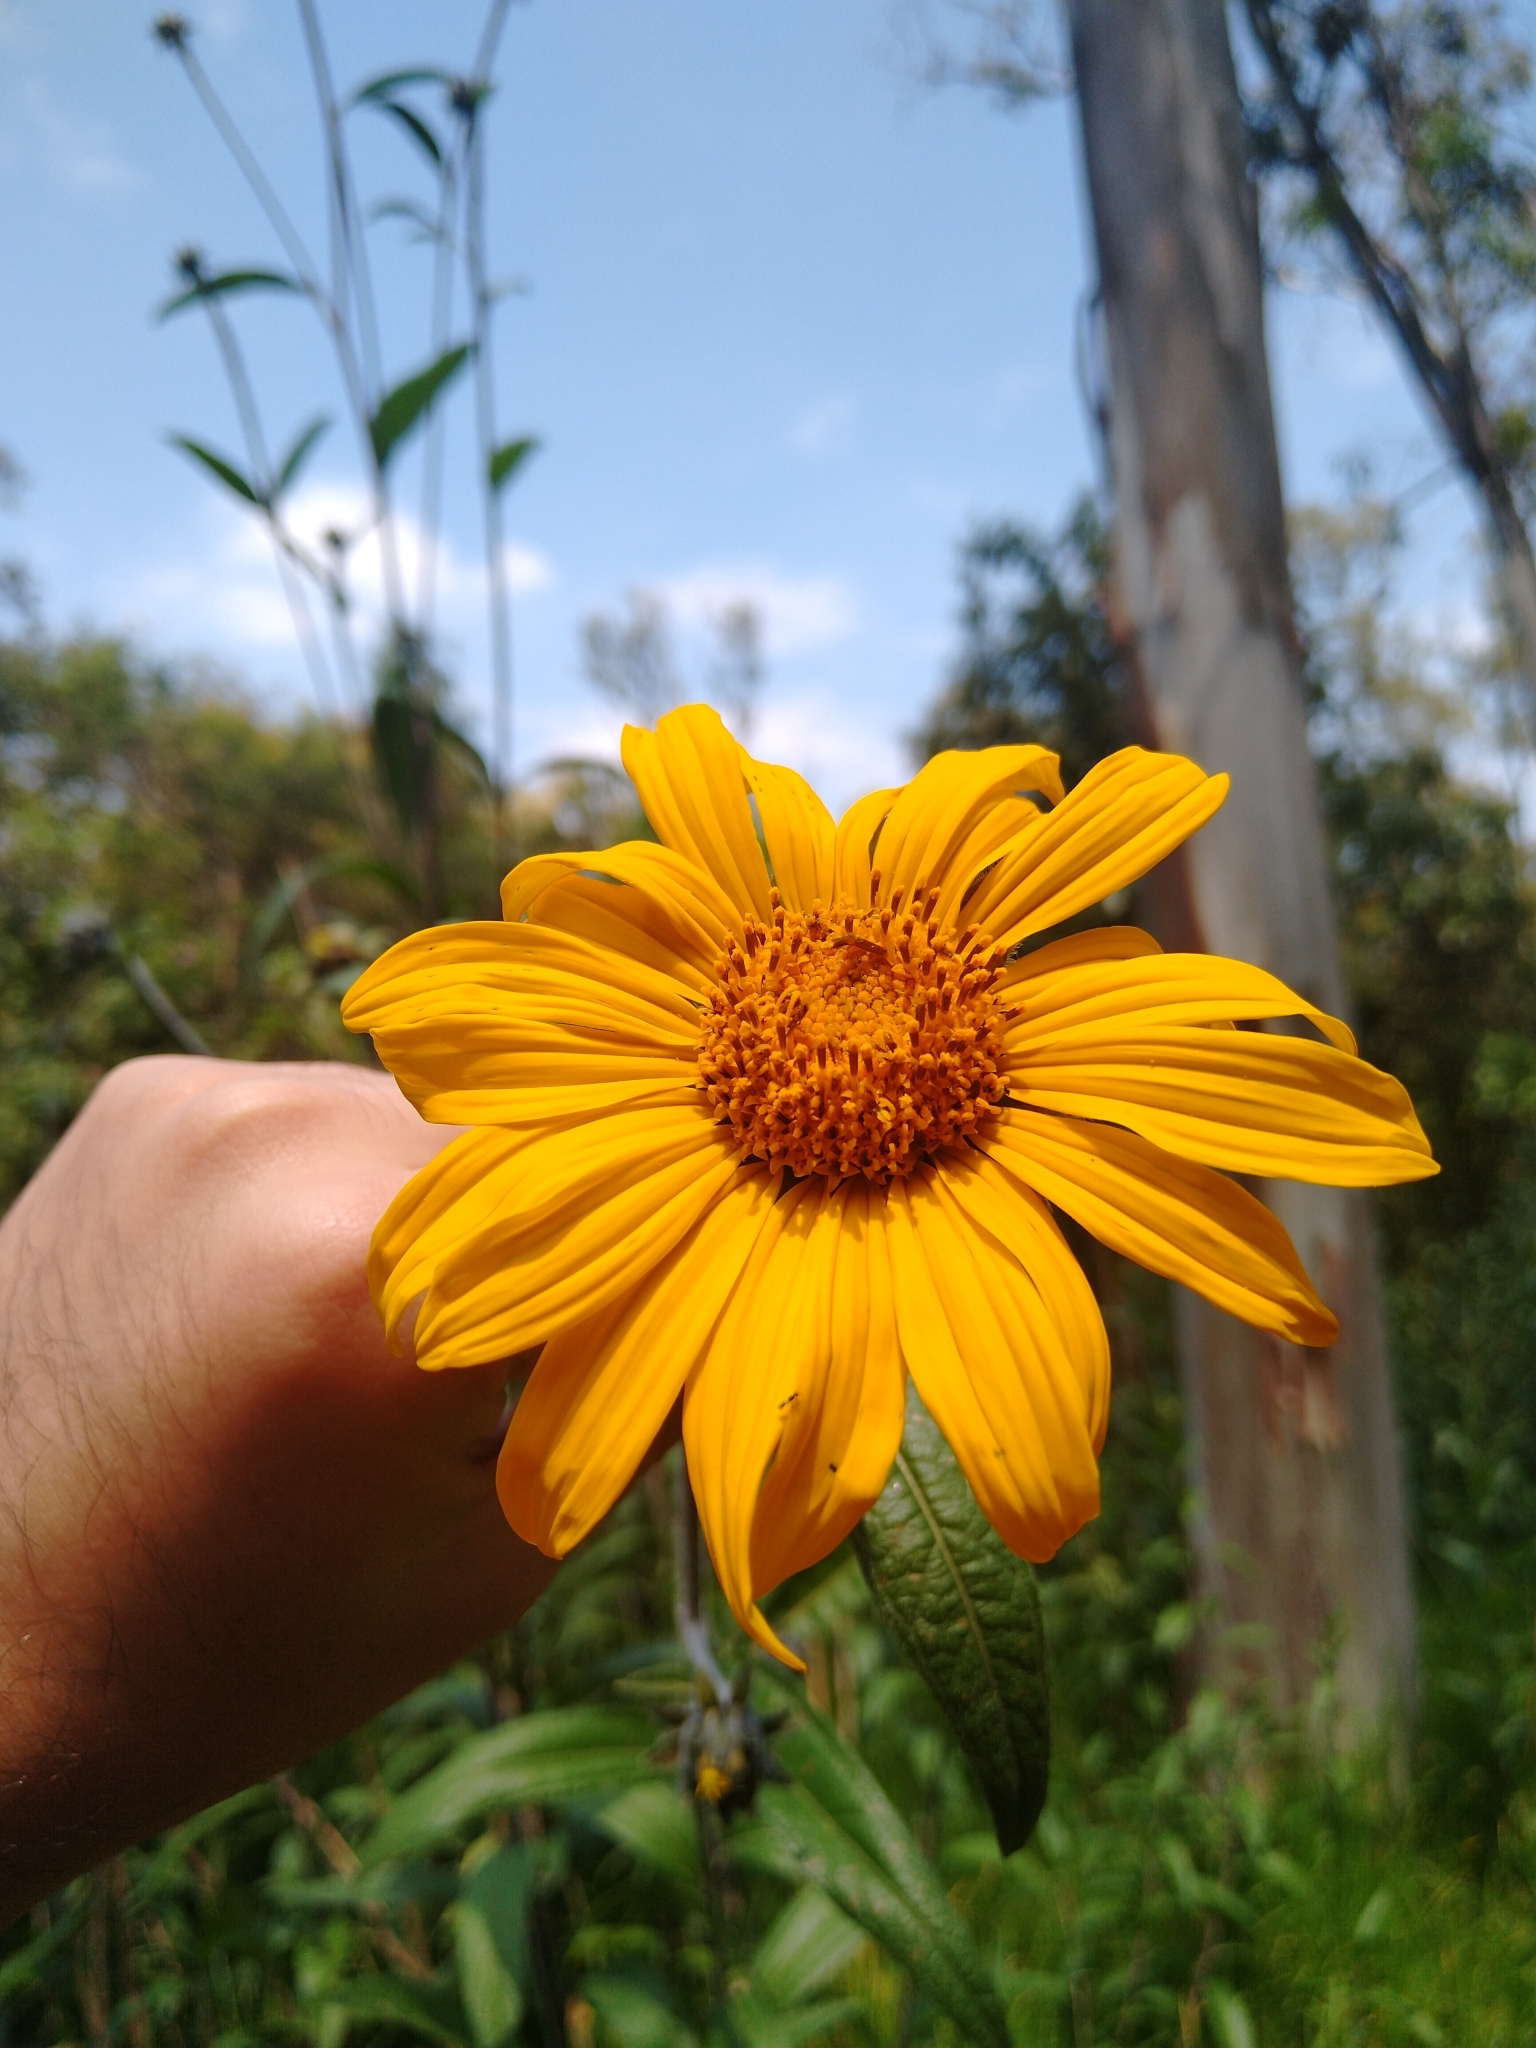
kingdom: Plantae
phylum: Tracheophyta
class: Magnoliopsida
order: Asterales
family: Asteraceae
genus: Aldama
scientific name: Aldama excelsa
